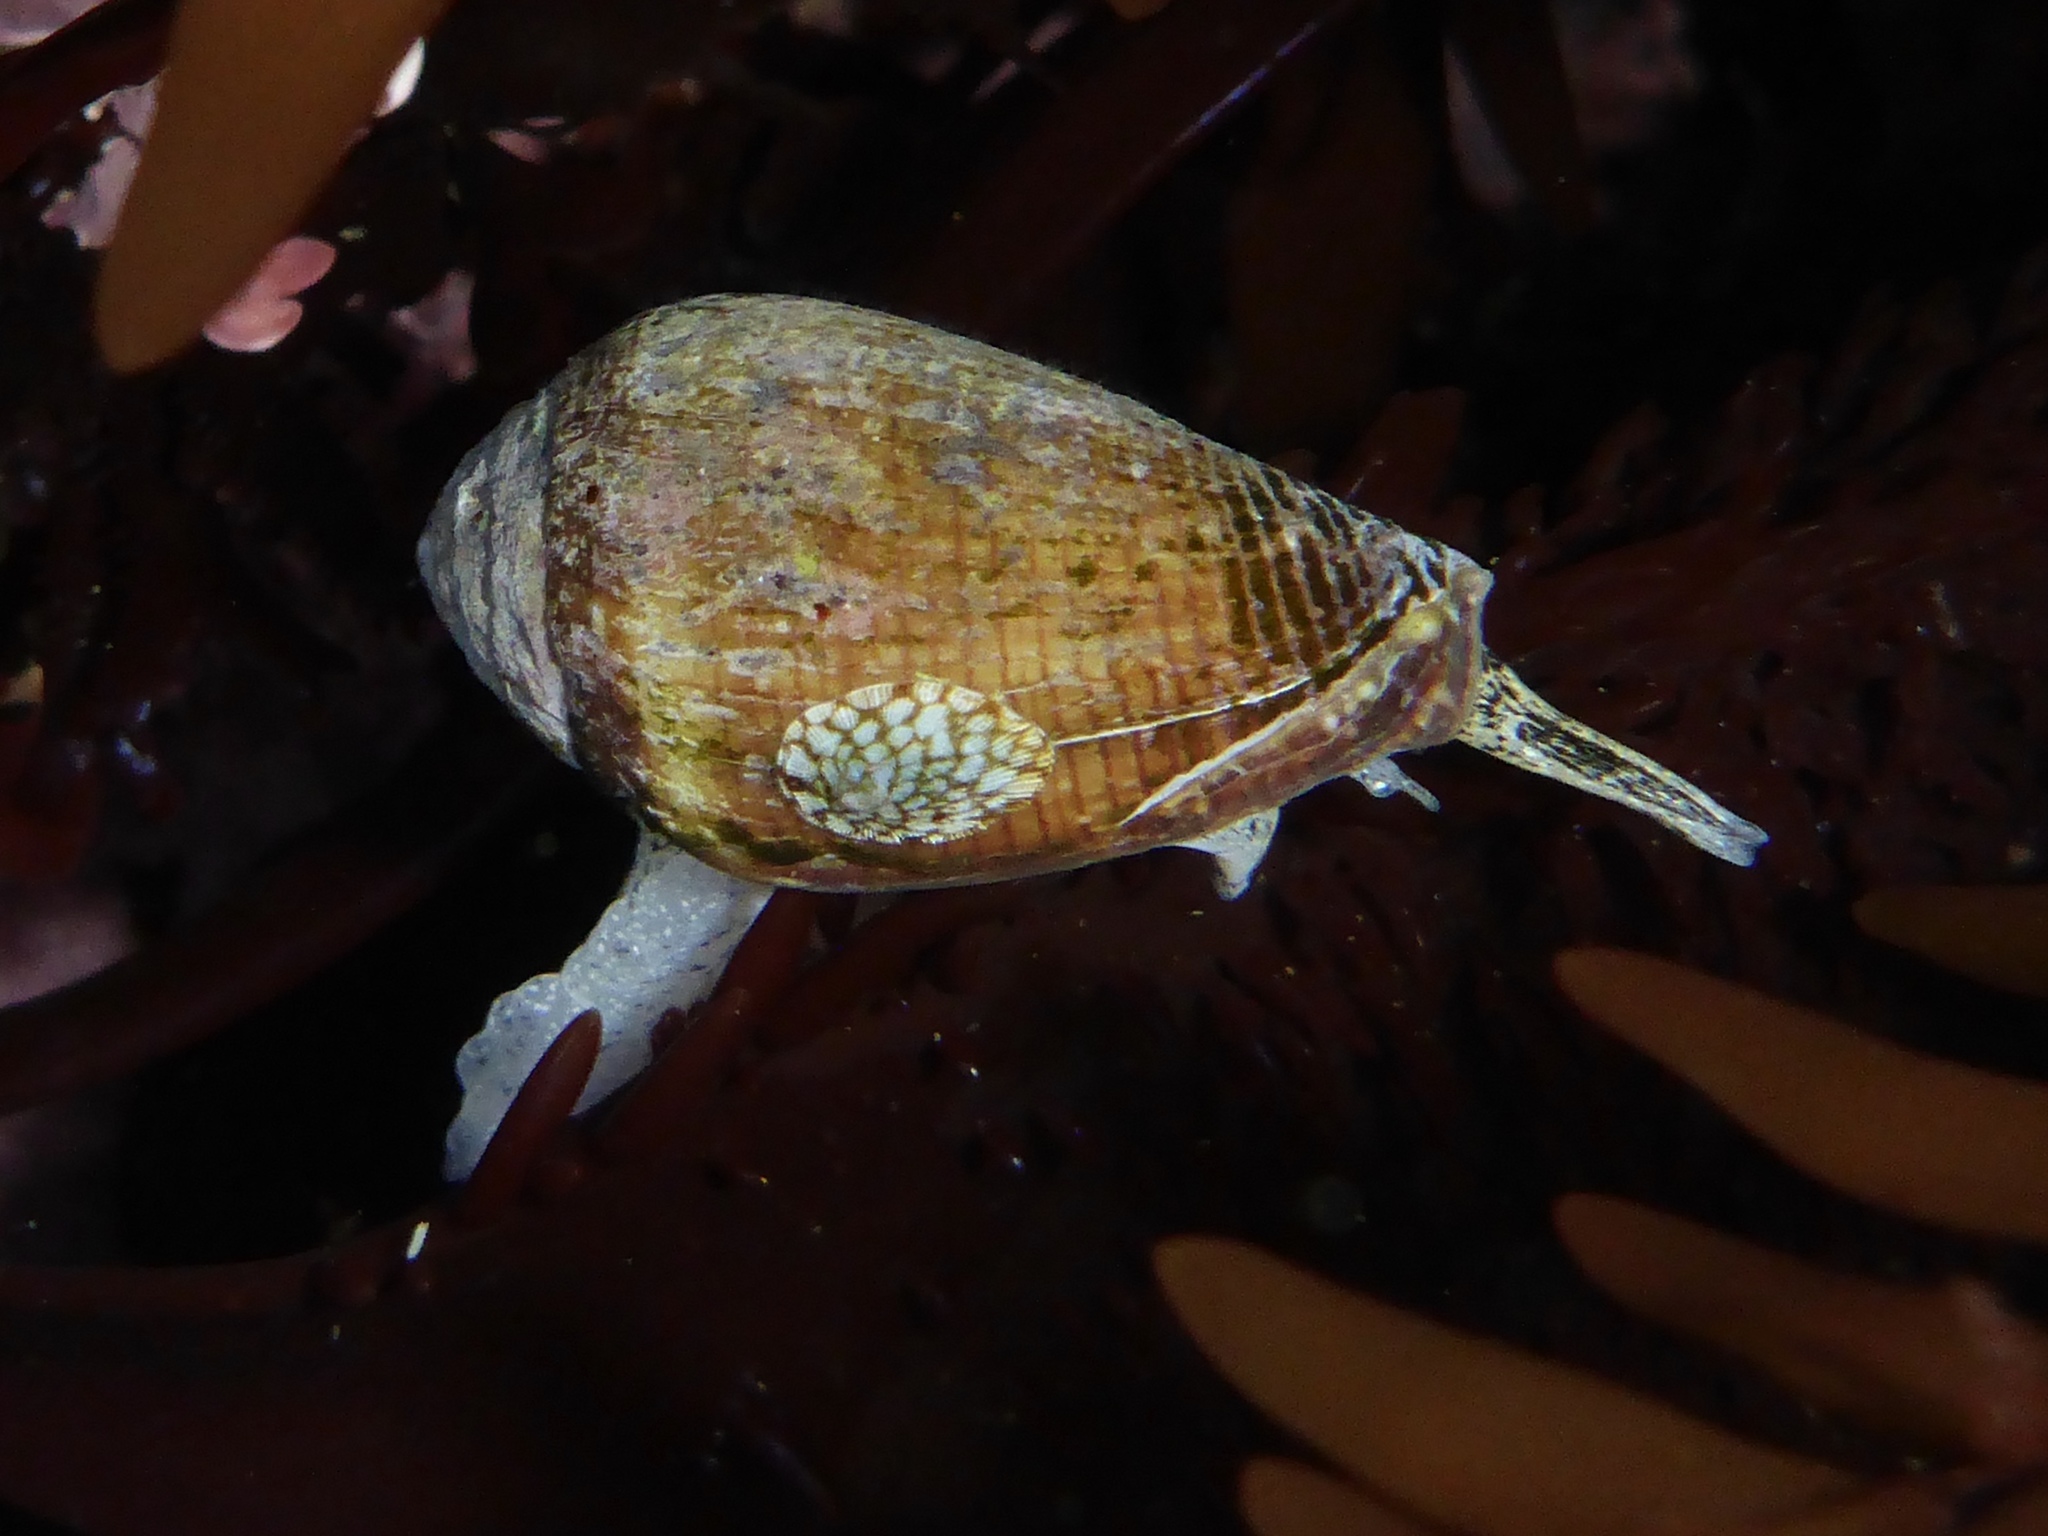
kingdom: Animalia
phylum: Mollusca
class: Gastropoda
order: Neogastropoda
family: Conidae
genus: Californiconus
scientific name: Californiconus californicus
